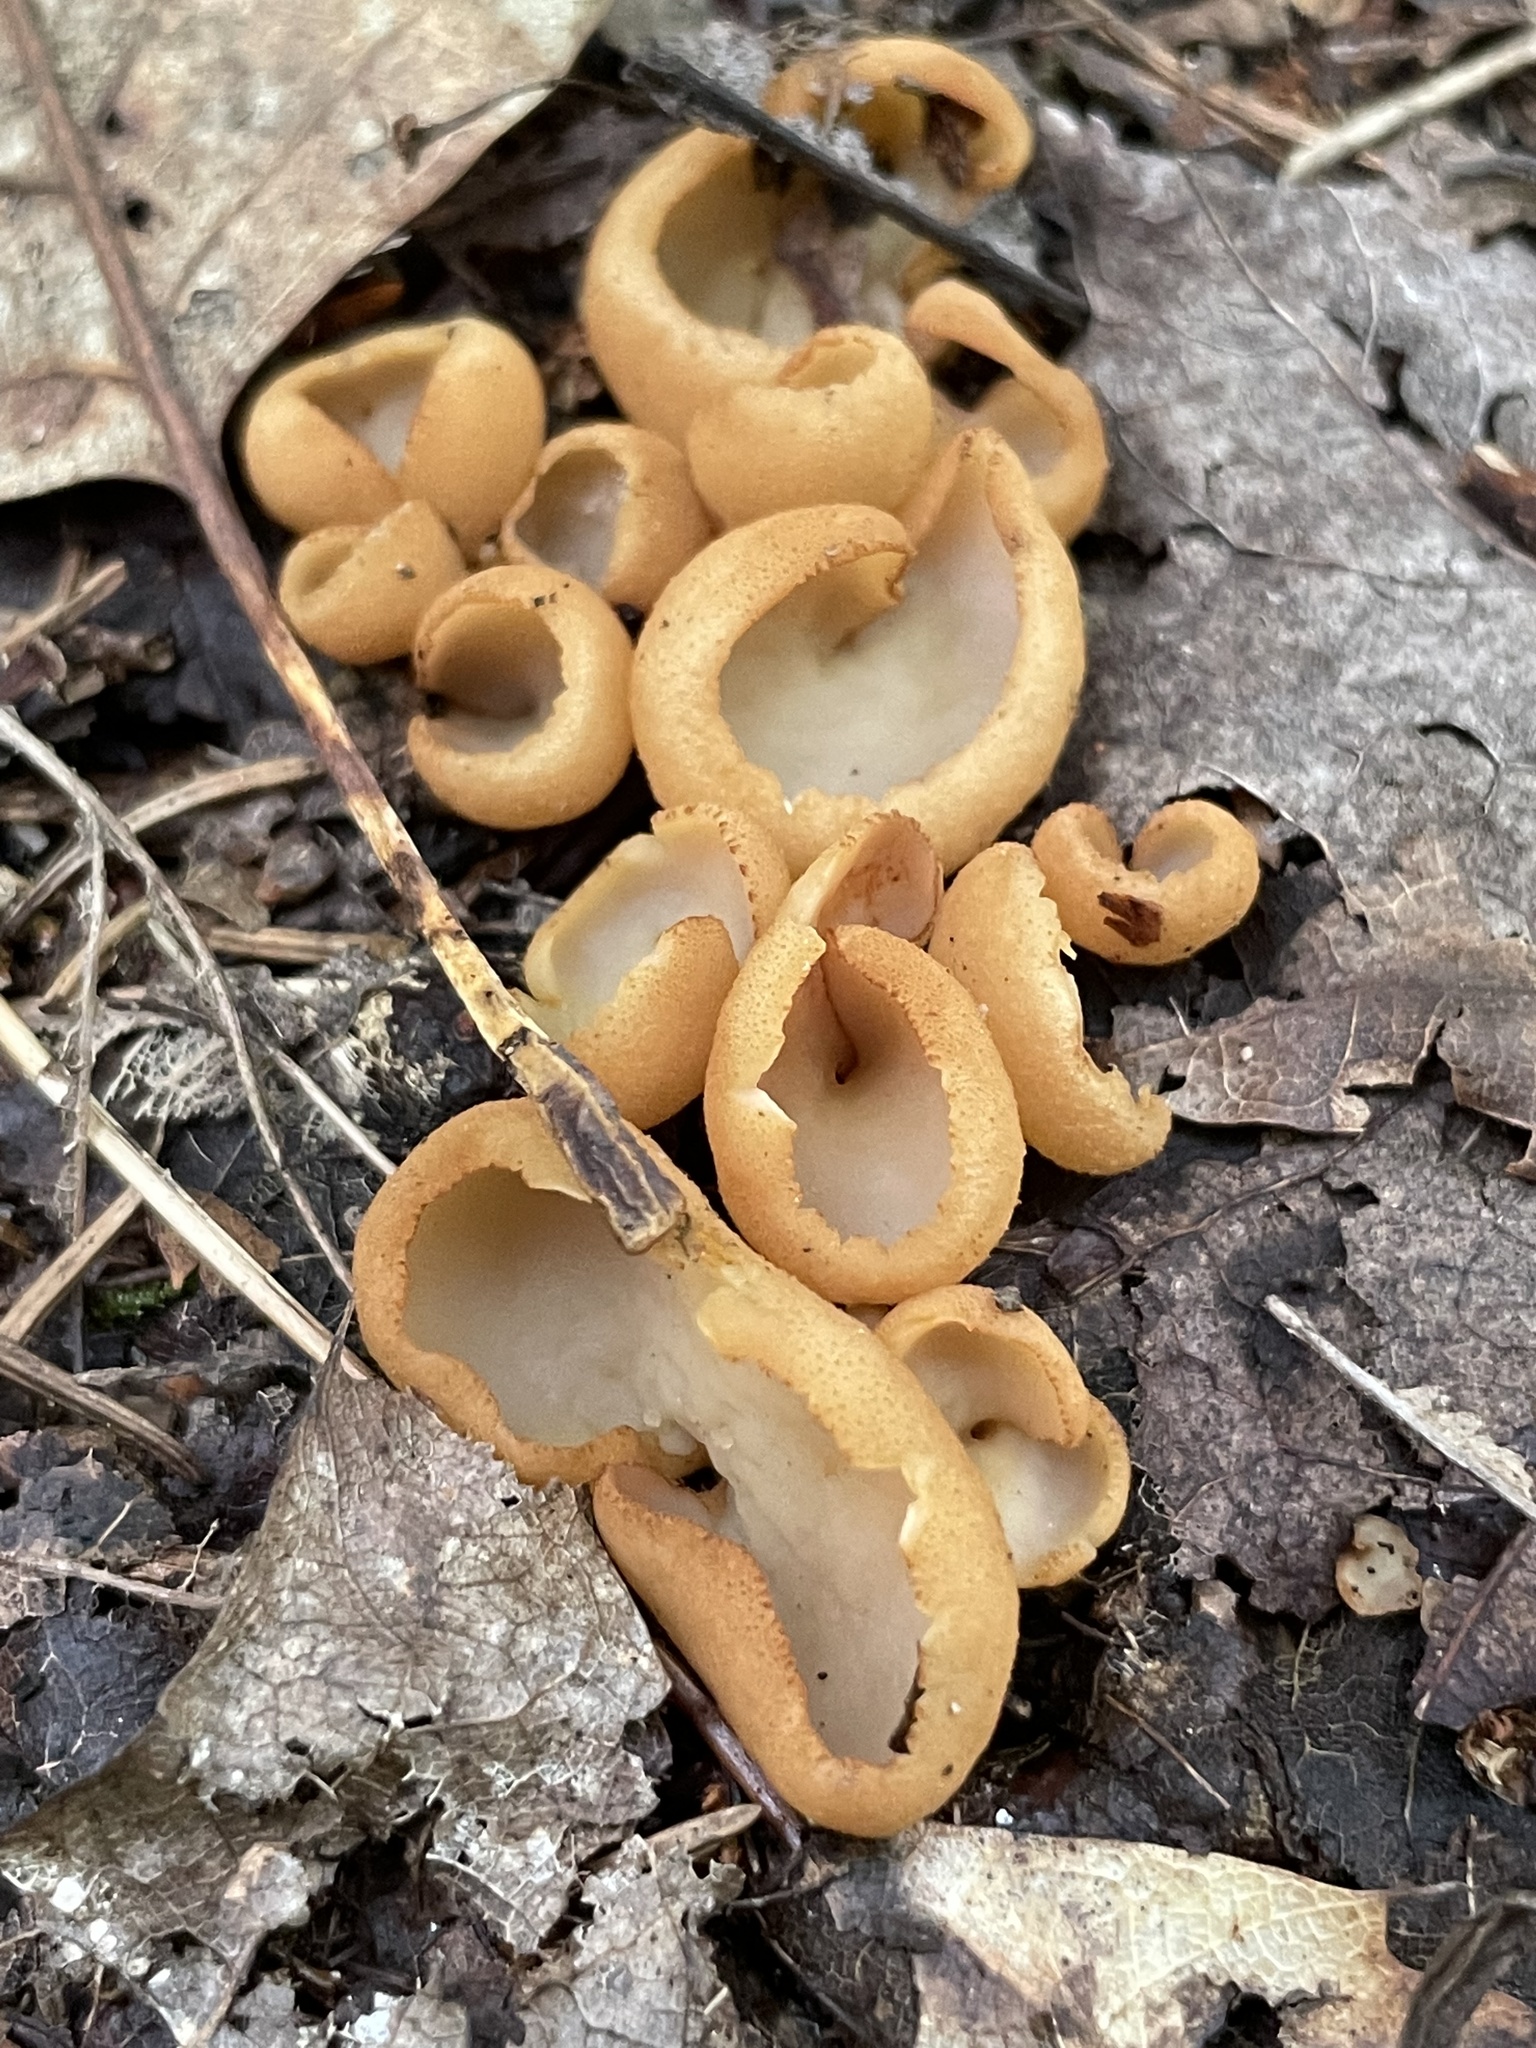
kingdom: Fungi
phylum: Ascomycota
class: Pezizomycetes
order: Pezizales
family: Otideaceae
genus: Otidea
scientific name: Otidea onotica
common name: Hare's ear
